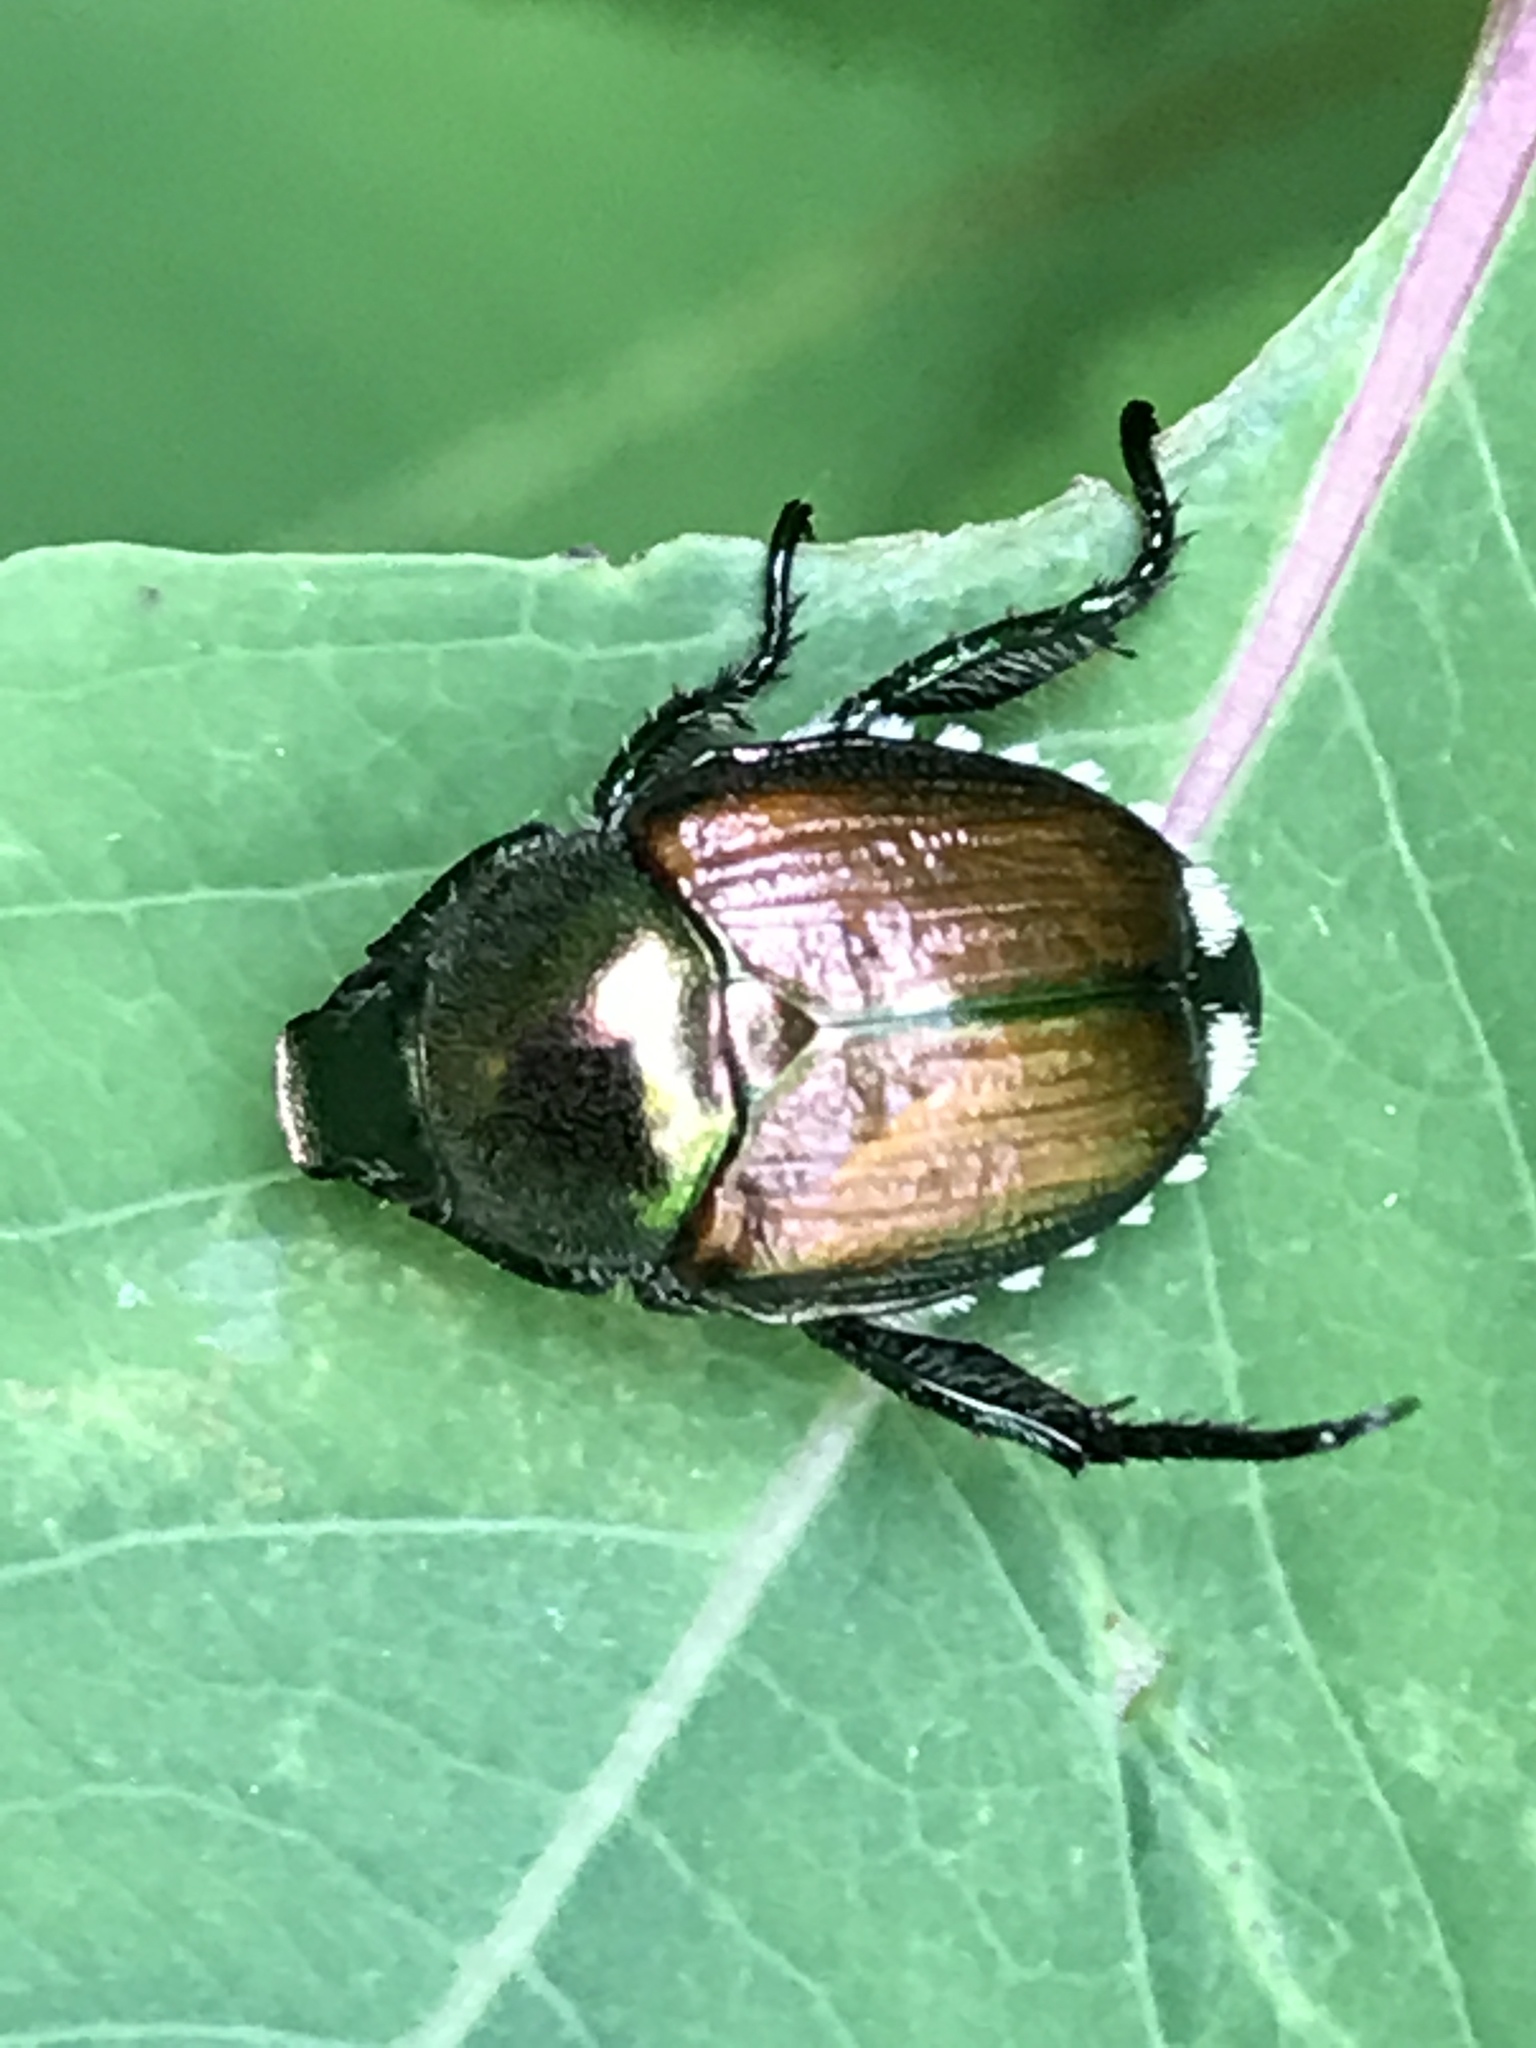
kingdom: Animalia
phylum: Arthropoda
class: Insecta
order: Coleoptera
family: Scarabaeidae
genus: Popillia
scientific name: Popillia japonica
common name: Japanese beetle
